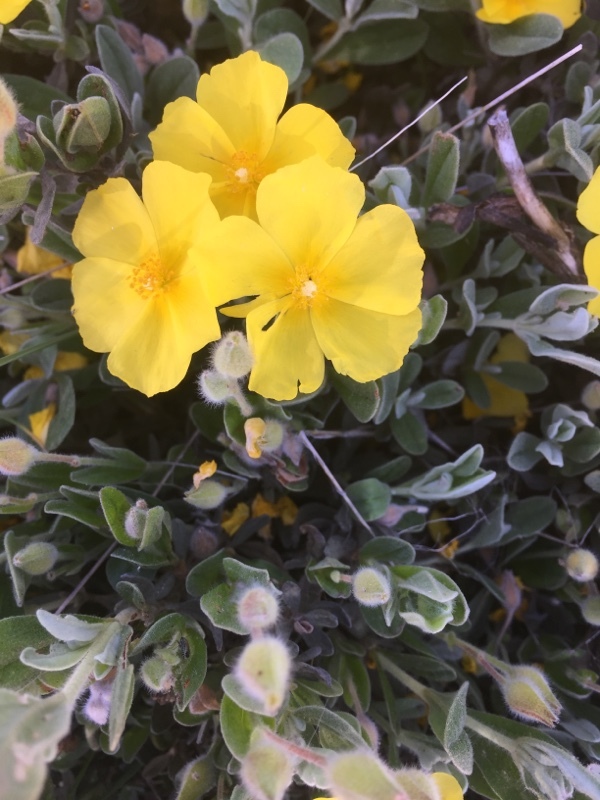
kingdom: Plantae
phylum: Tracheophyta
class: Magnoliopsida
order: Malvales
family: Cistaceae
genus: Halimium
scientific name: Halimium lasianthum
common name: Lisbon false sun-rose
